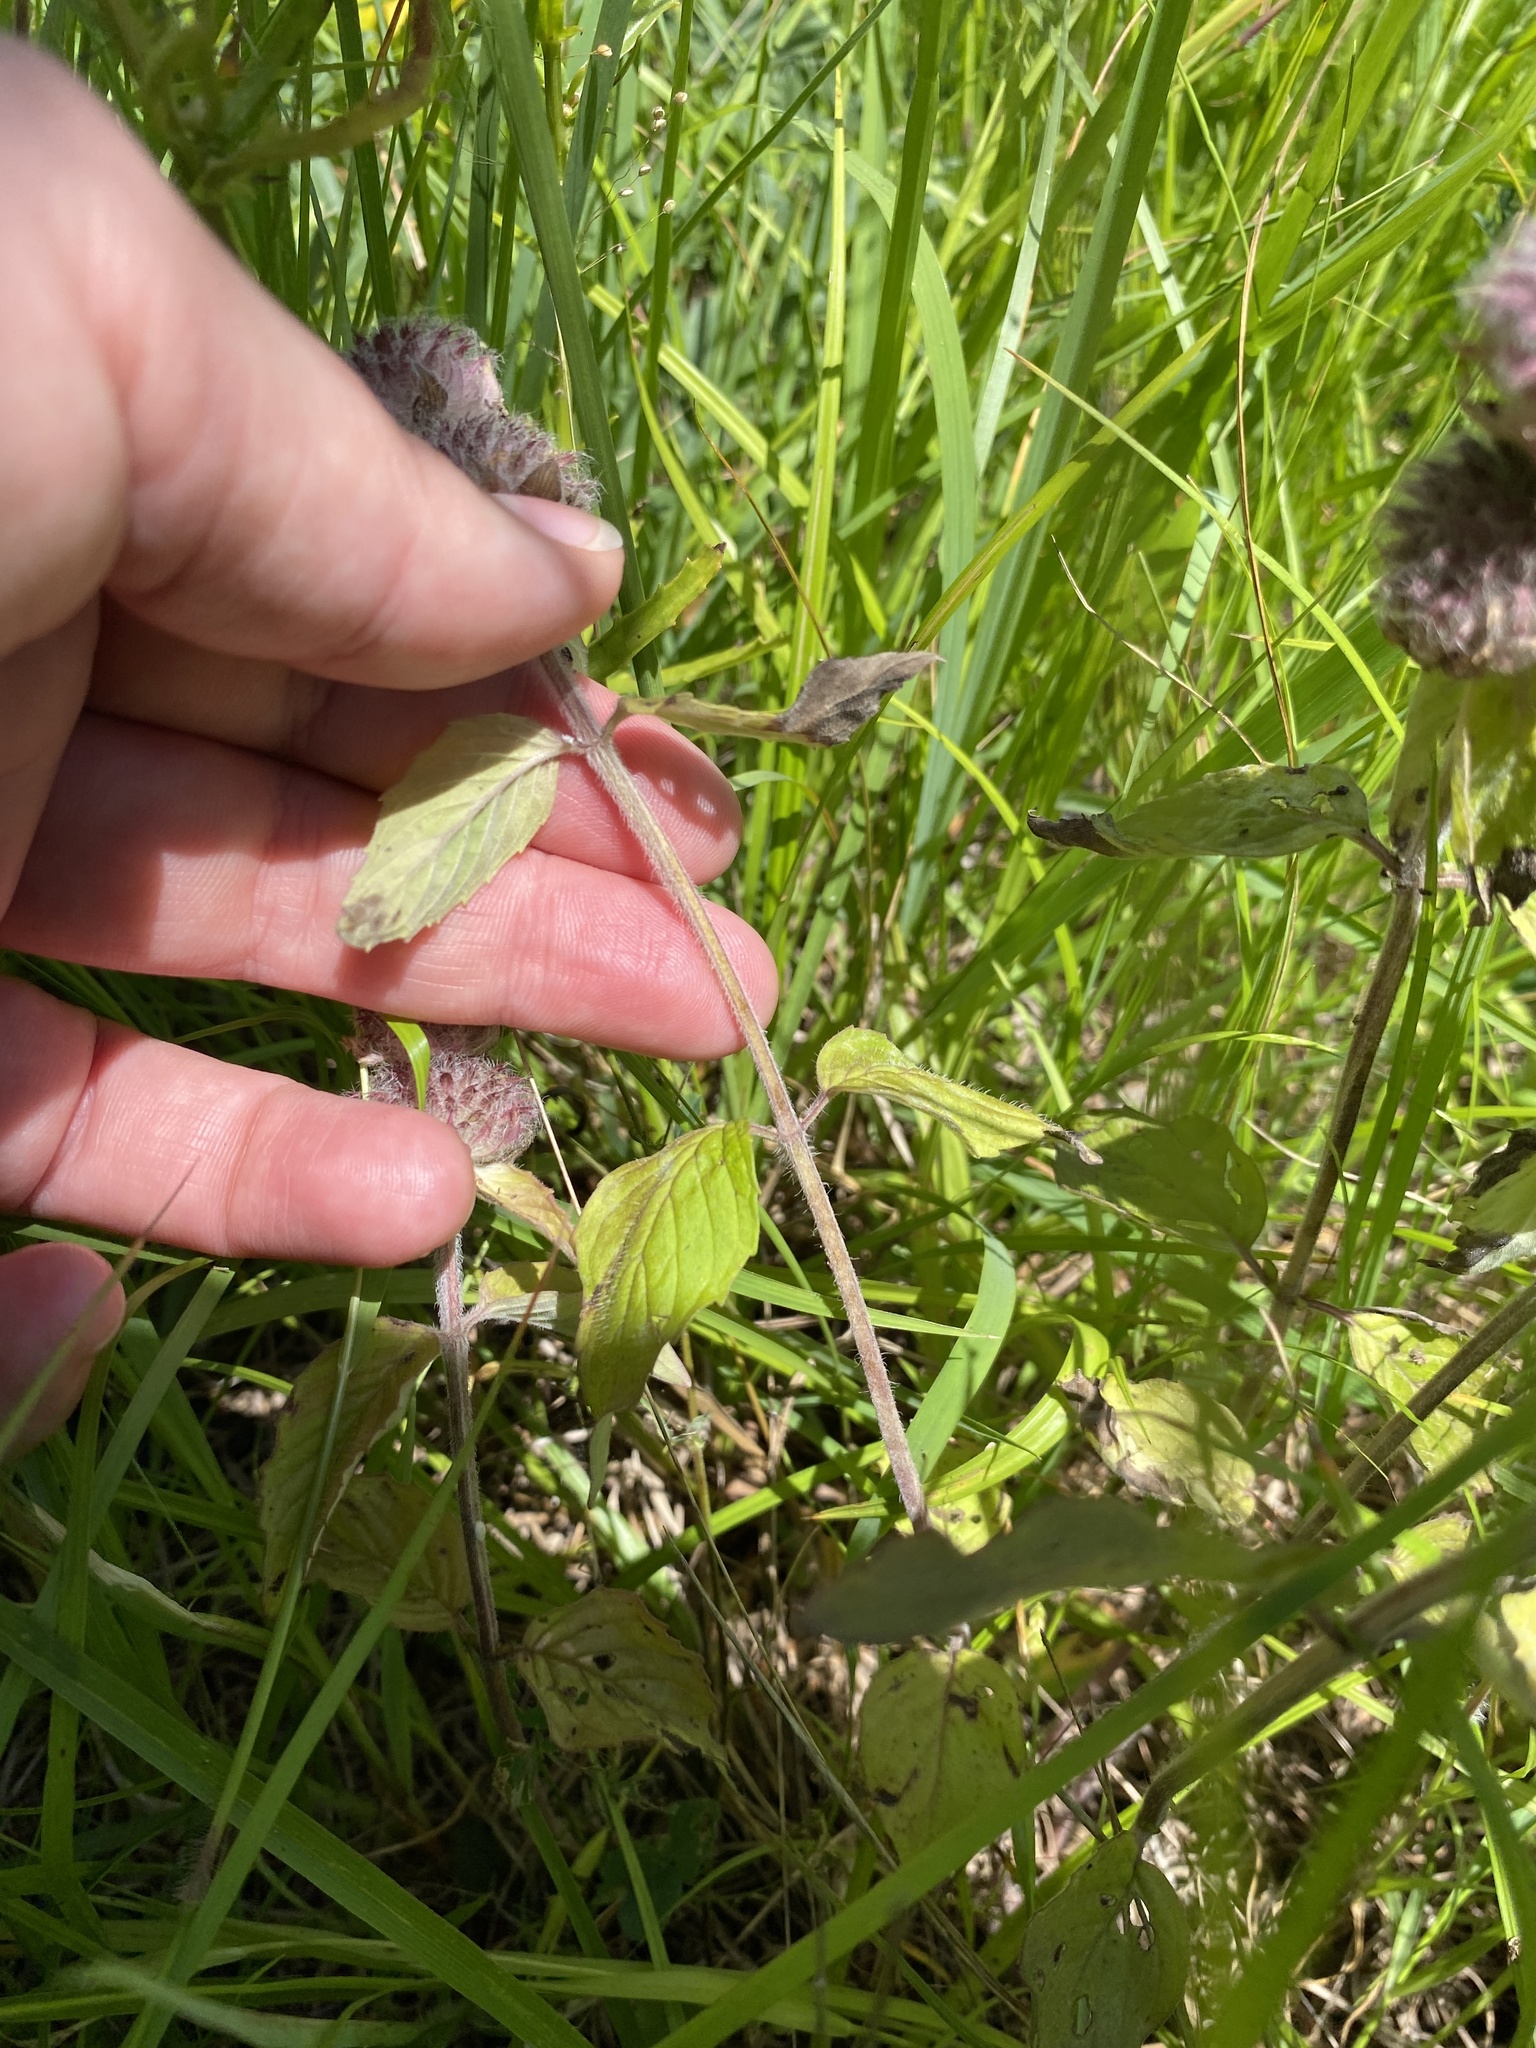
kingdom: Plantae
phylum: Tracheophyta
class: Magnoliopsida
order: Lamiales
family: Lamiaceae
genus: Blephilia
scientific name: Blephilia ciliata
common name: Downy blephilia
